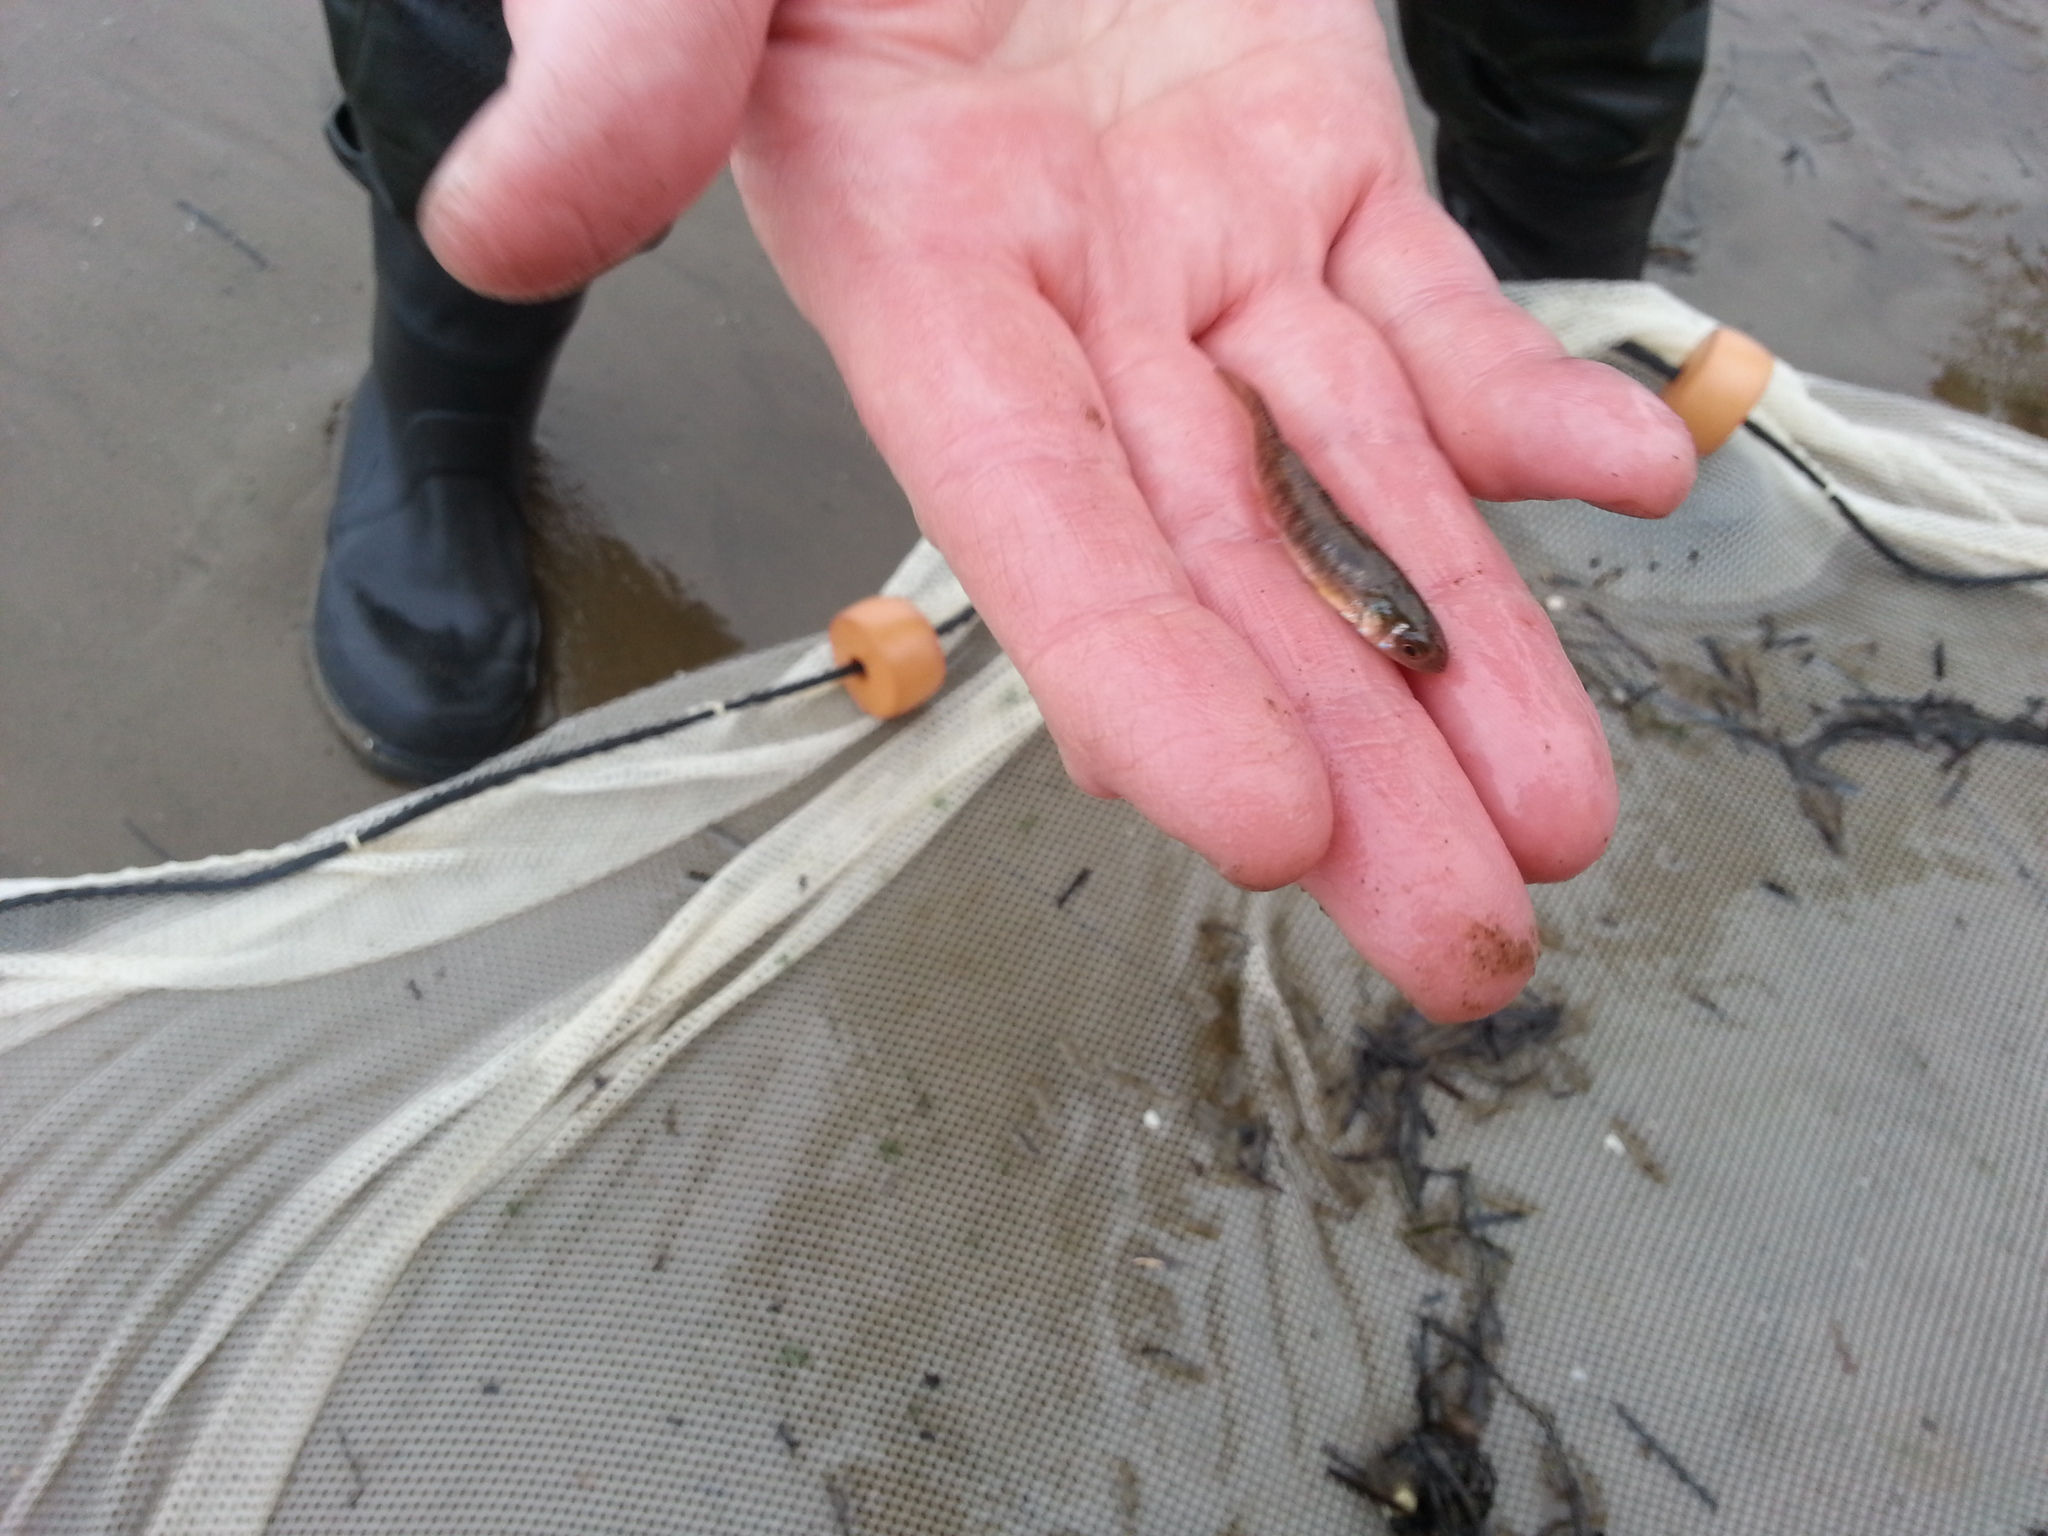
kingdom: Animalia
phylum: Chordata
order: Cyprinodontiformes
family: Fundulidae
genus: Fundulus
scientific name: Fundulus heteroclitus
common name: Mummichog
